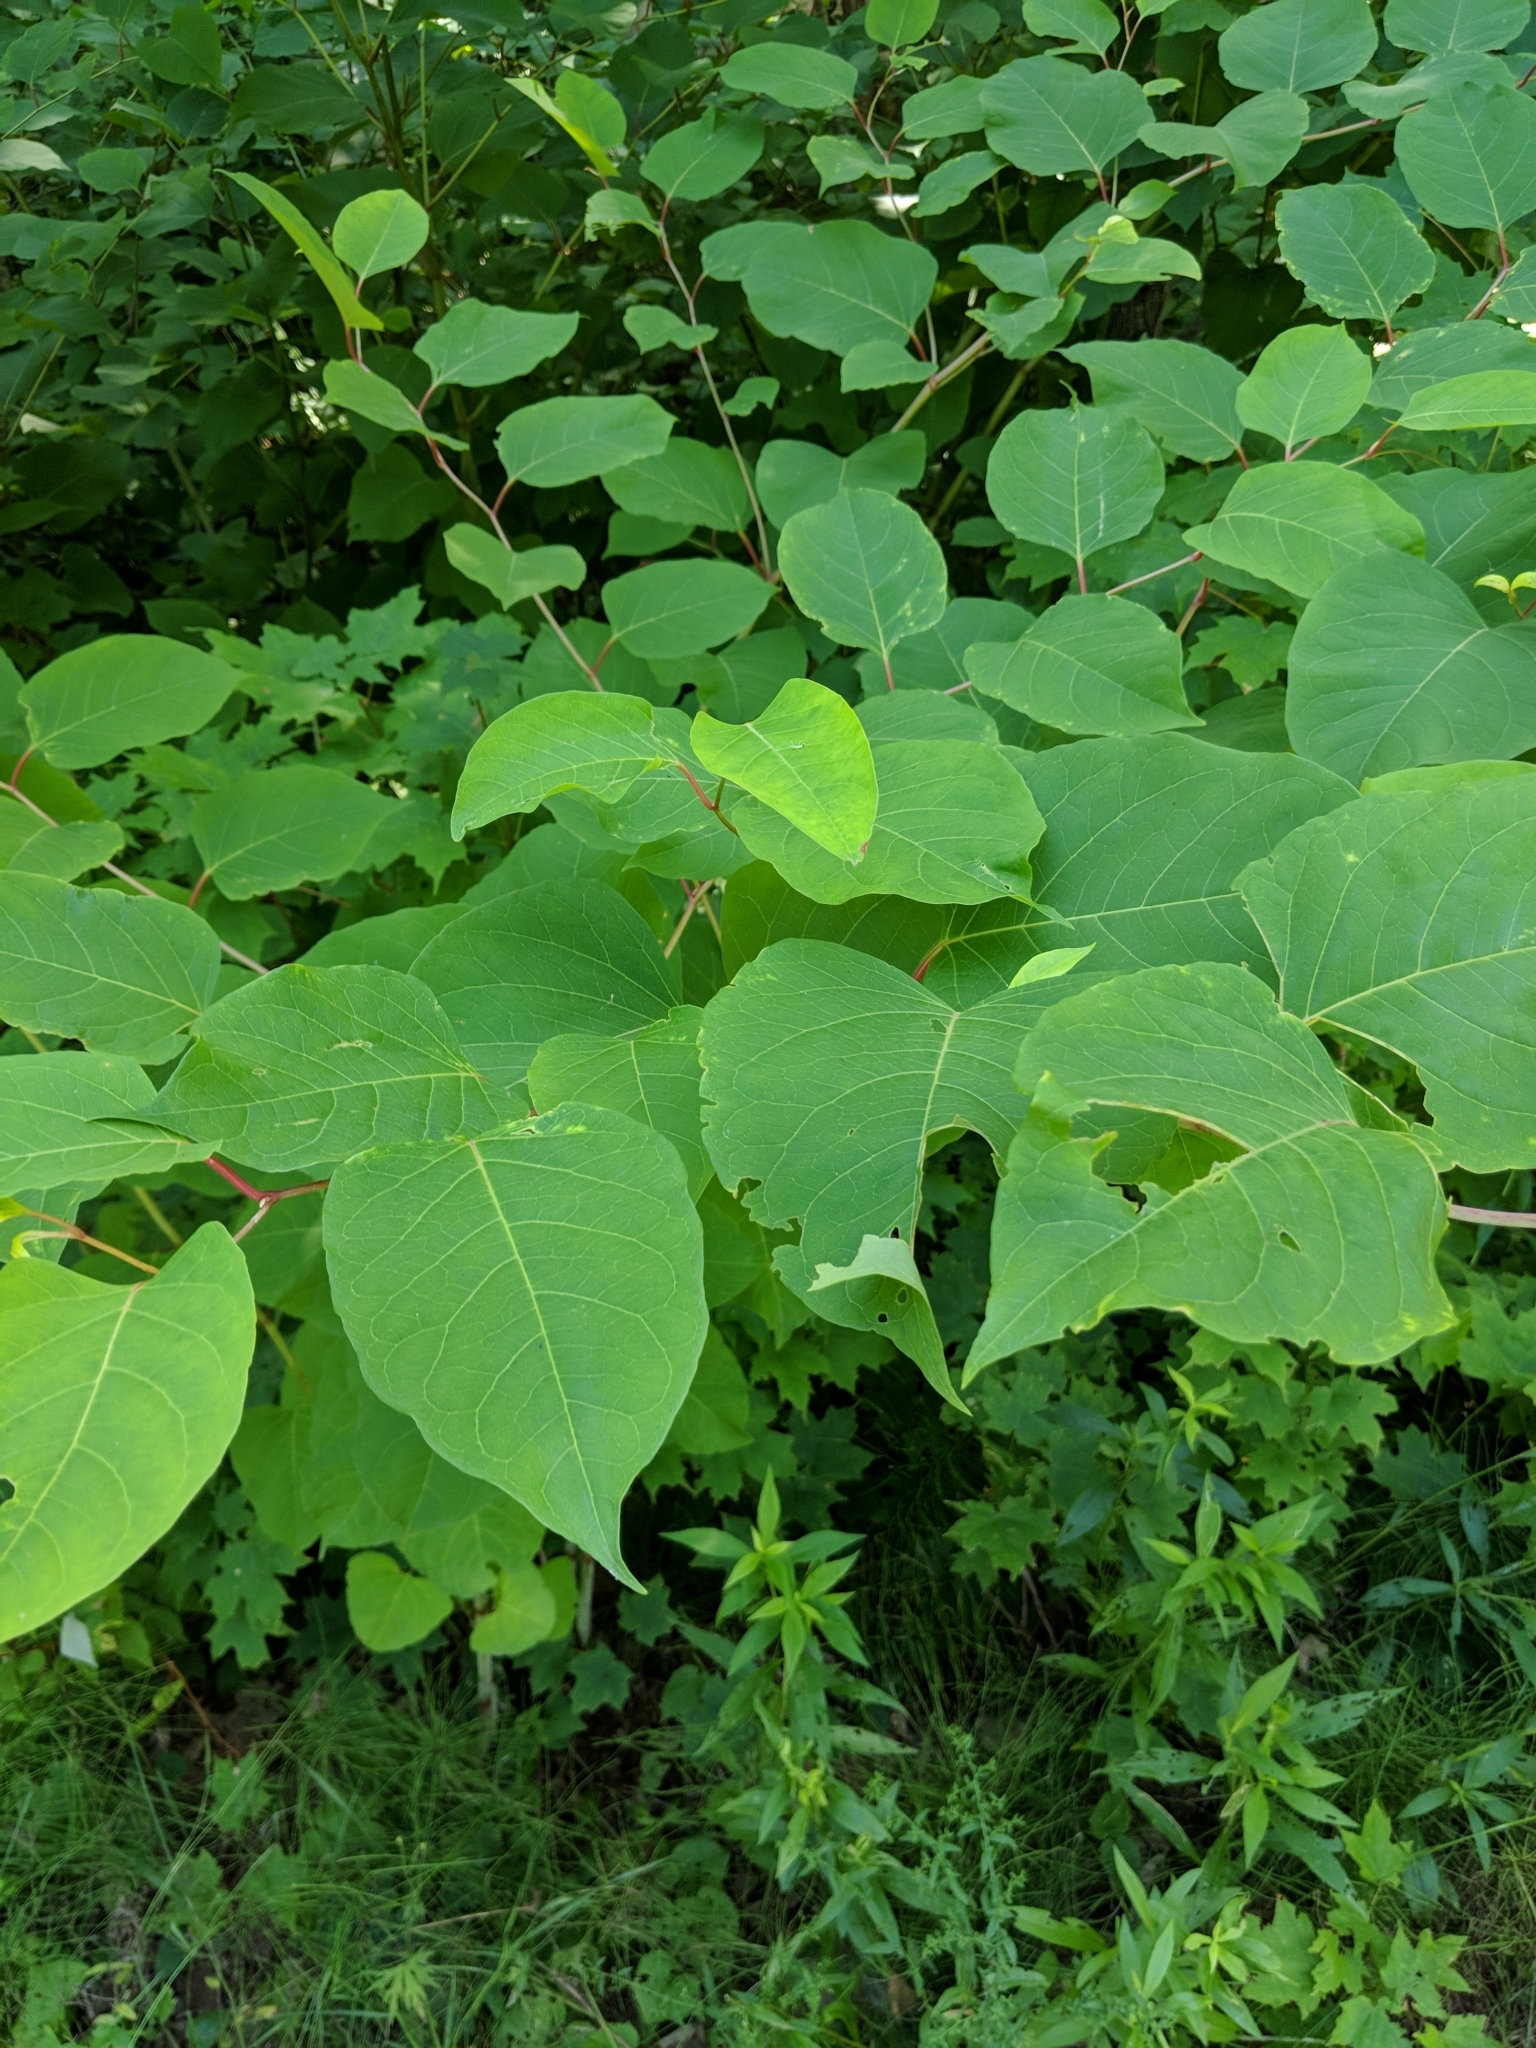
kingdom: Plantae
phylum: Tracheophyta
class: Magnoliopsida
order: Caryophyllales
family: Polygonaceae
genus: Reynoutria
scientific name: Reynoutria japonica
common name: Japanese knotweed
